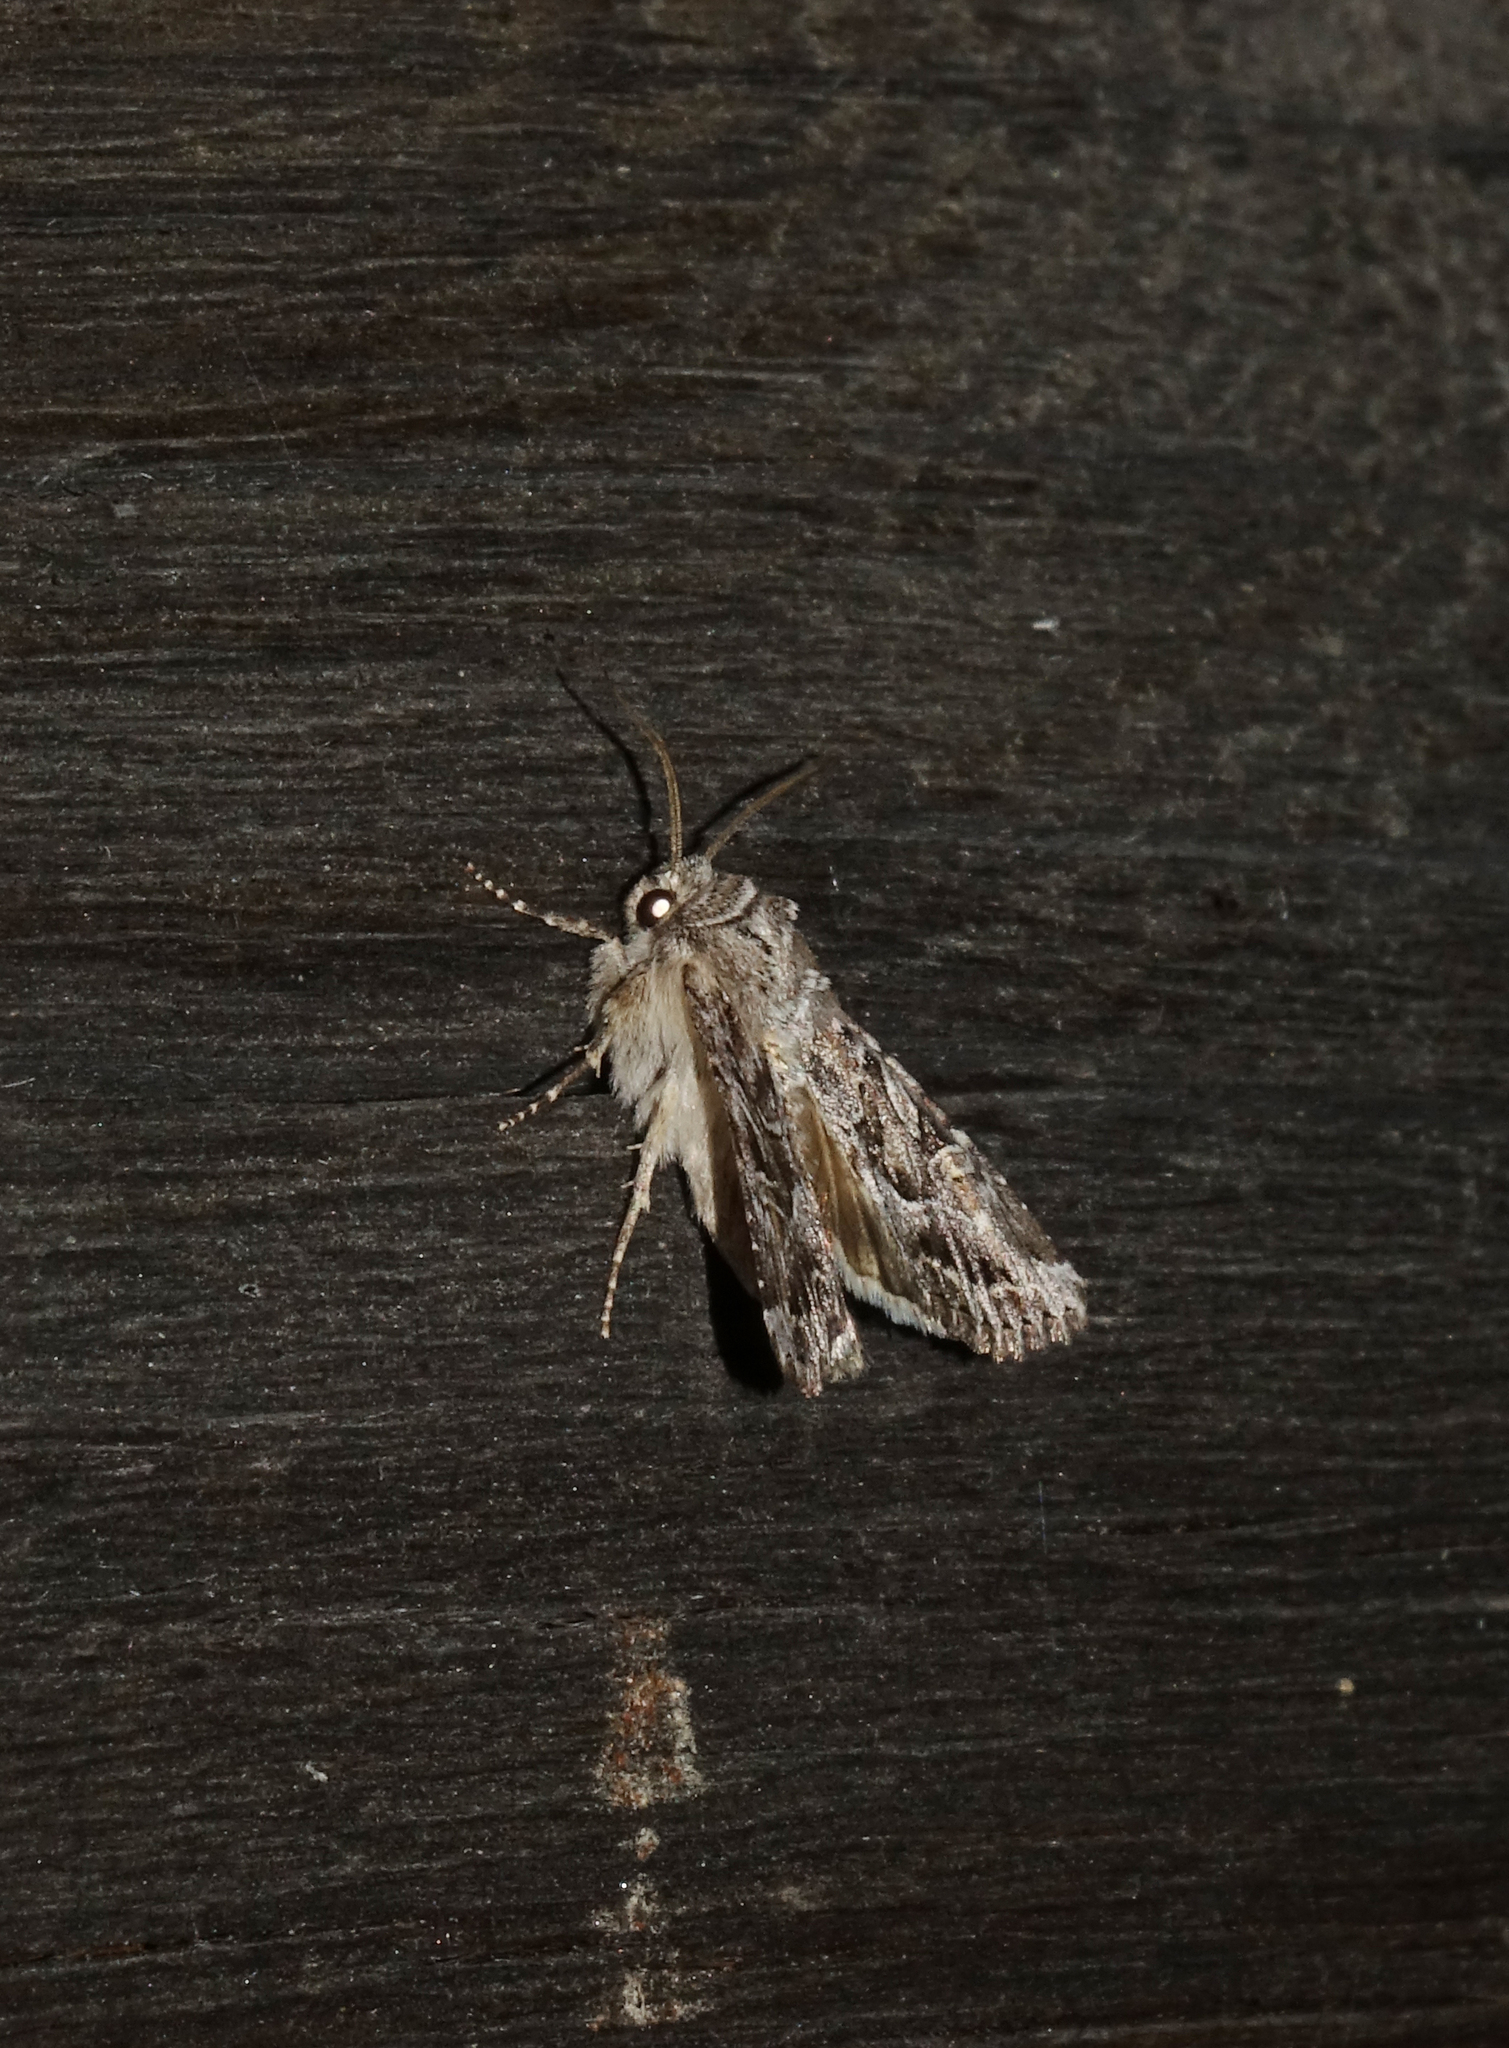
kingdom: Animalia
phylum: Arthropoda
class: Insecta
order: Lepidoptera
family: Noctuidae
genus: Apamea
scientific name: Apamea leucodon
